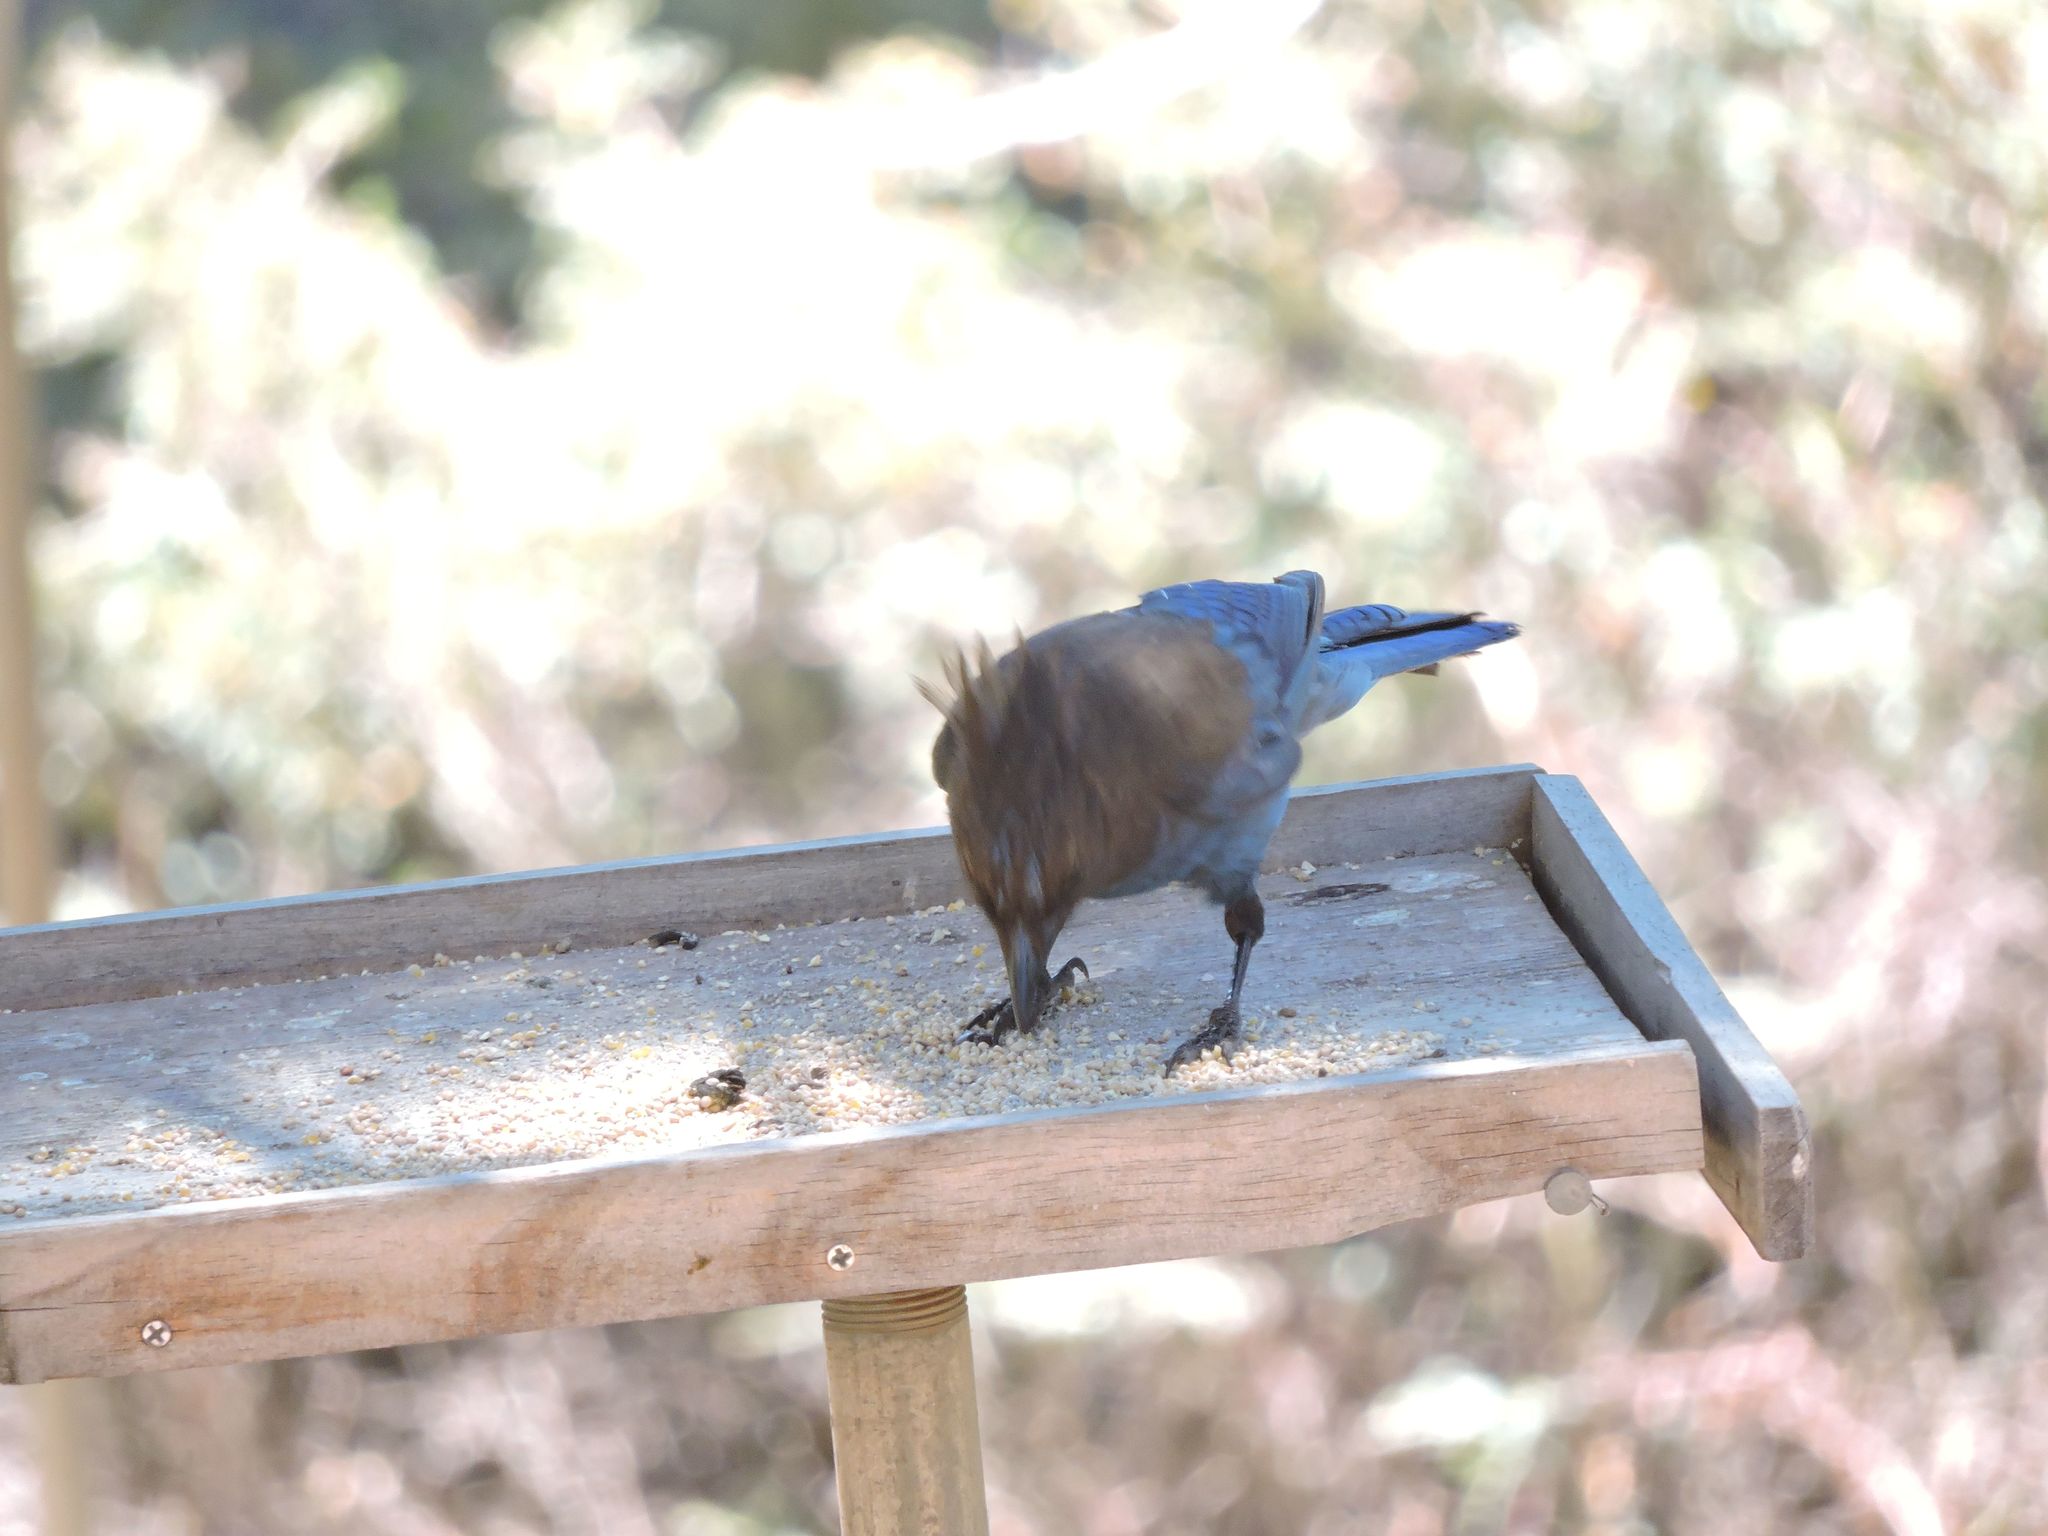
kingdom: Animalia
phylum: Chordata
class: Aves
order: Passeriformes
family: Corvidae
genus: Cyanocitta
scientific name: Cyanocitta stelleri
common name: Steller's jay
